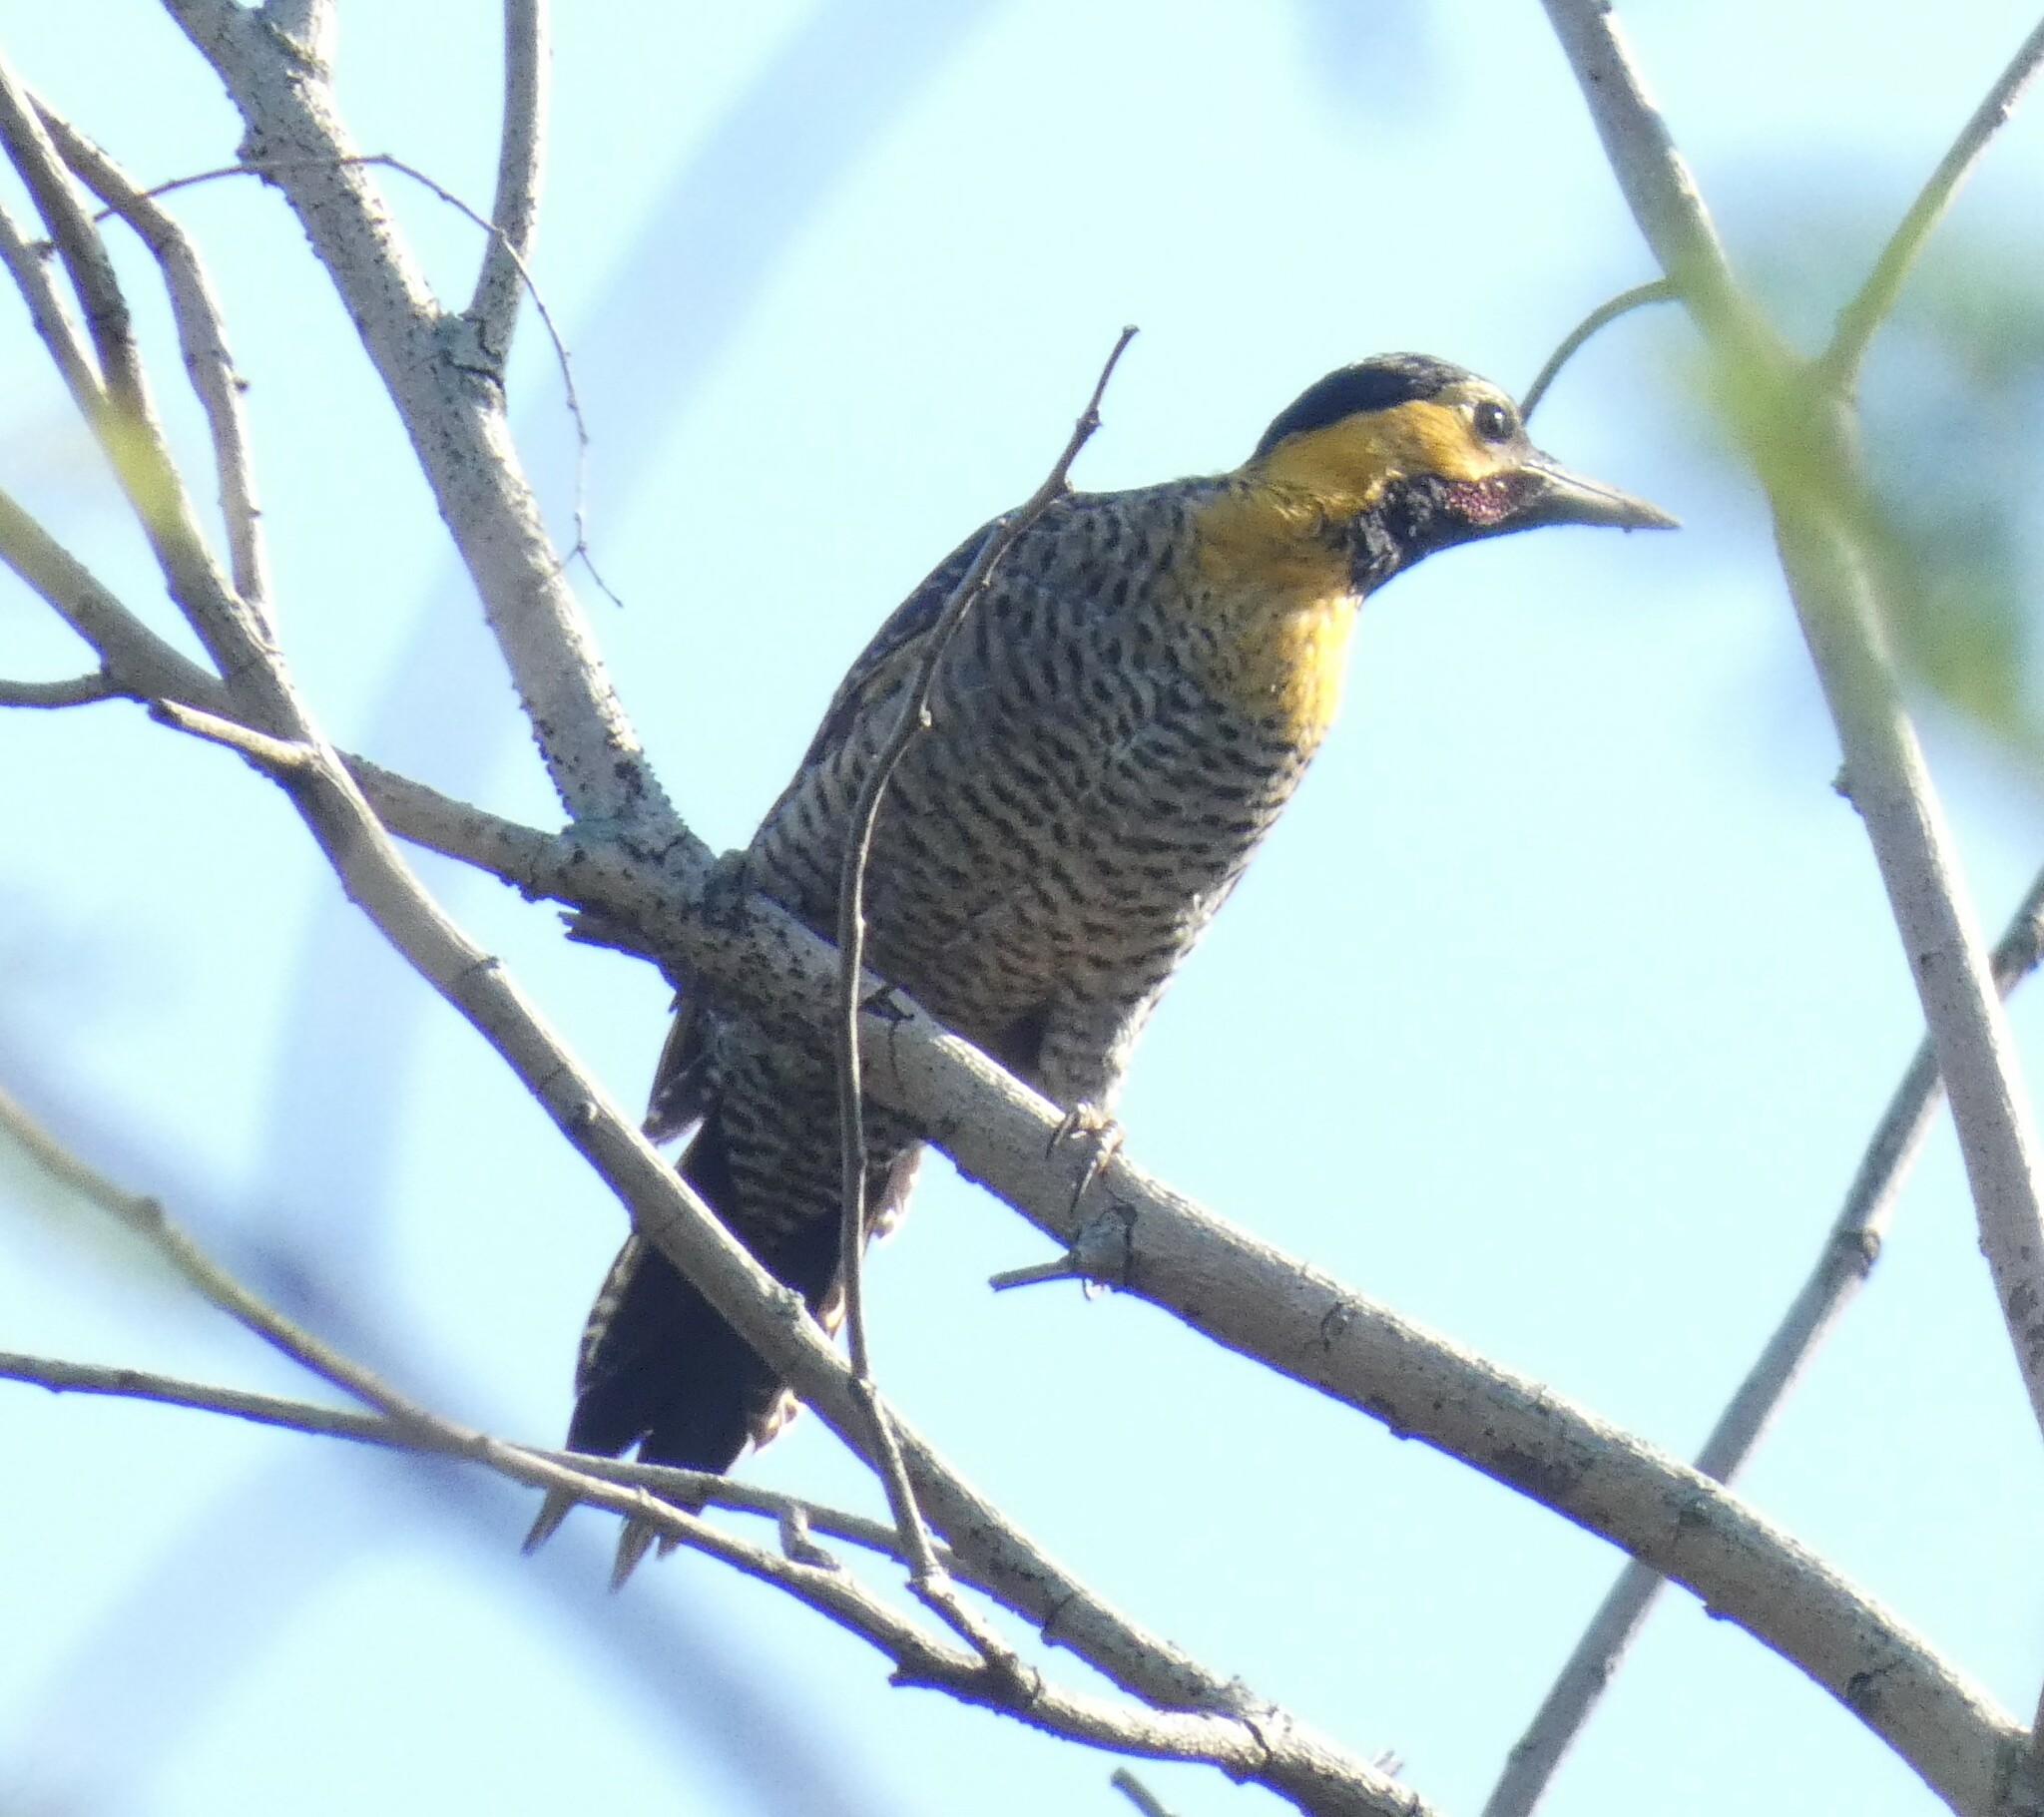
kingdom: Animalia
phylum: Chordata
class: Aves
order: Piciformes
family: Picidae
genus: Colaptes
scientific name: Colaptes campestris
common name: Campo flicker
